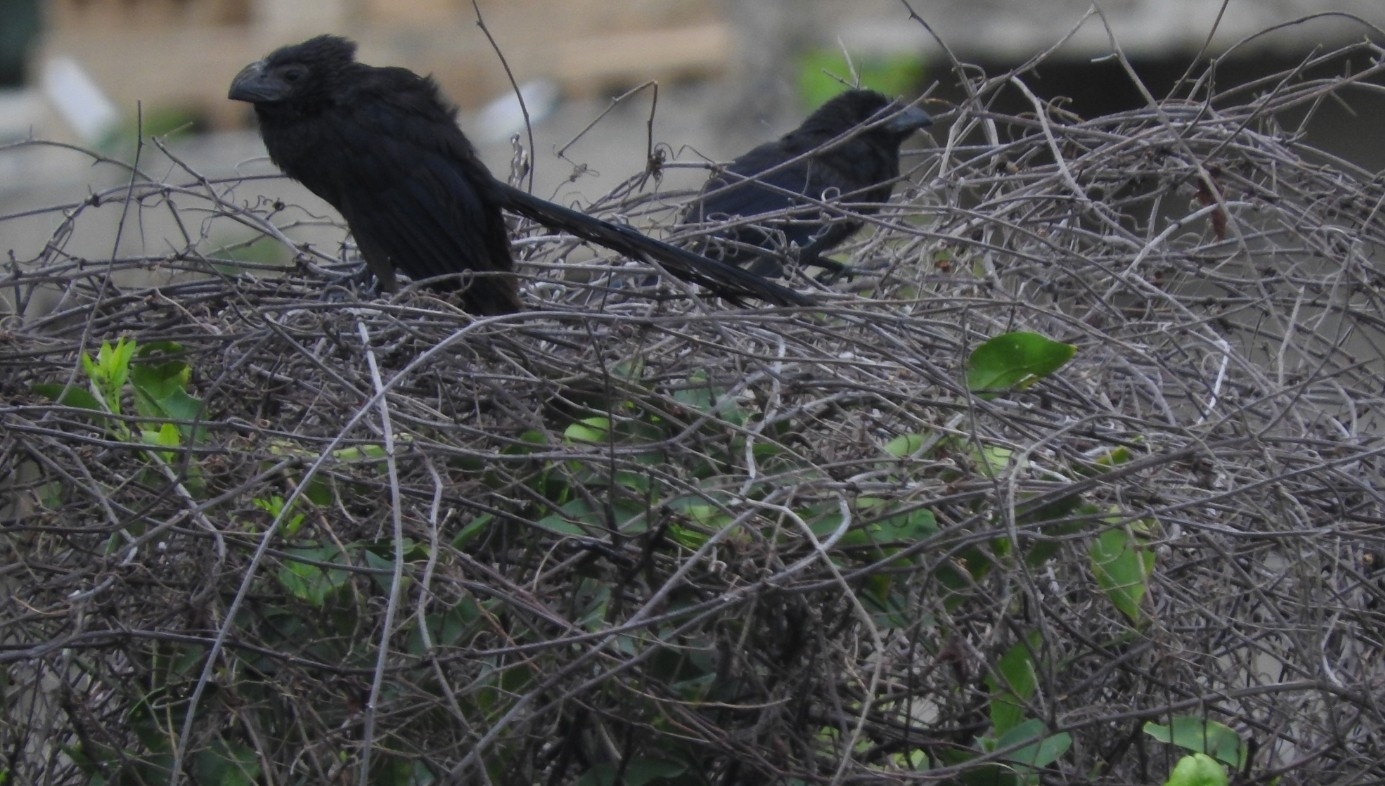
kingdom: Animalia
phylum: Chordata
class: Aves
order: Cuculiformes
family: Cuculidae
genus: Crotophaga
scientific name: Crotophaga sulcirostris
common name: Groove-billed ani
